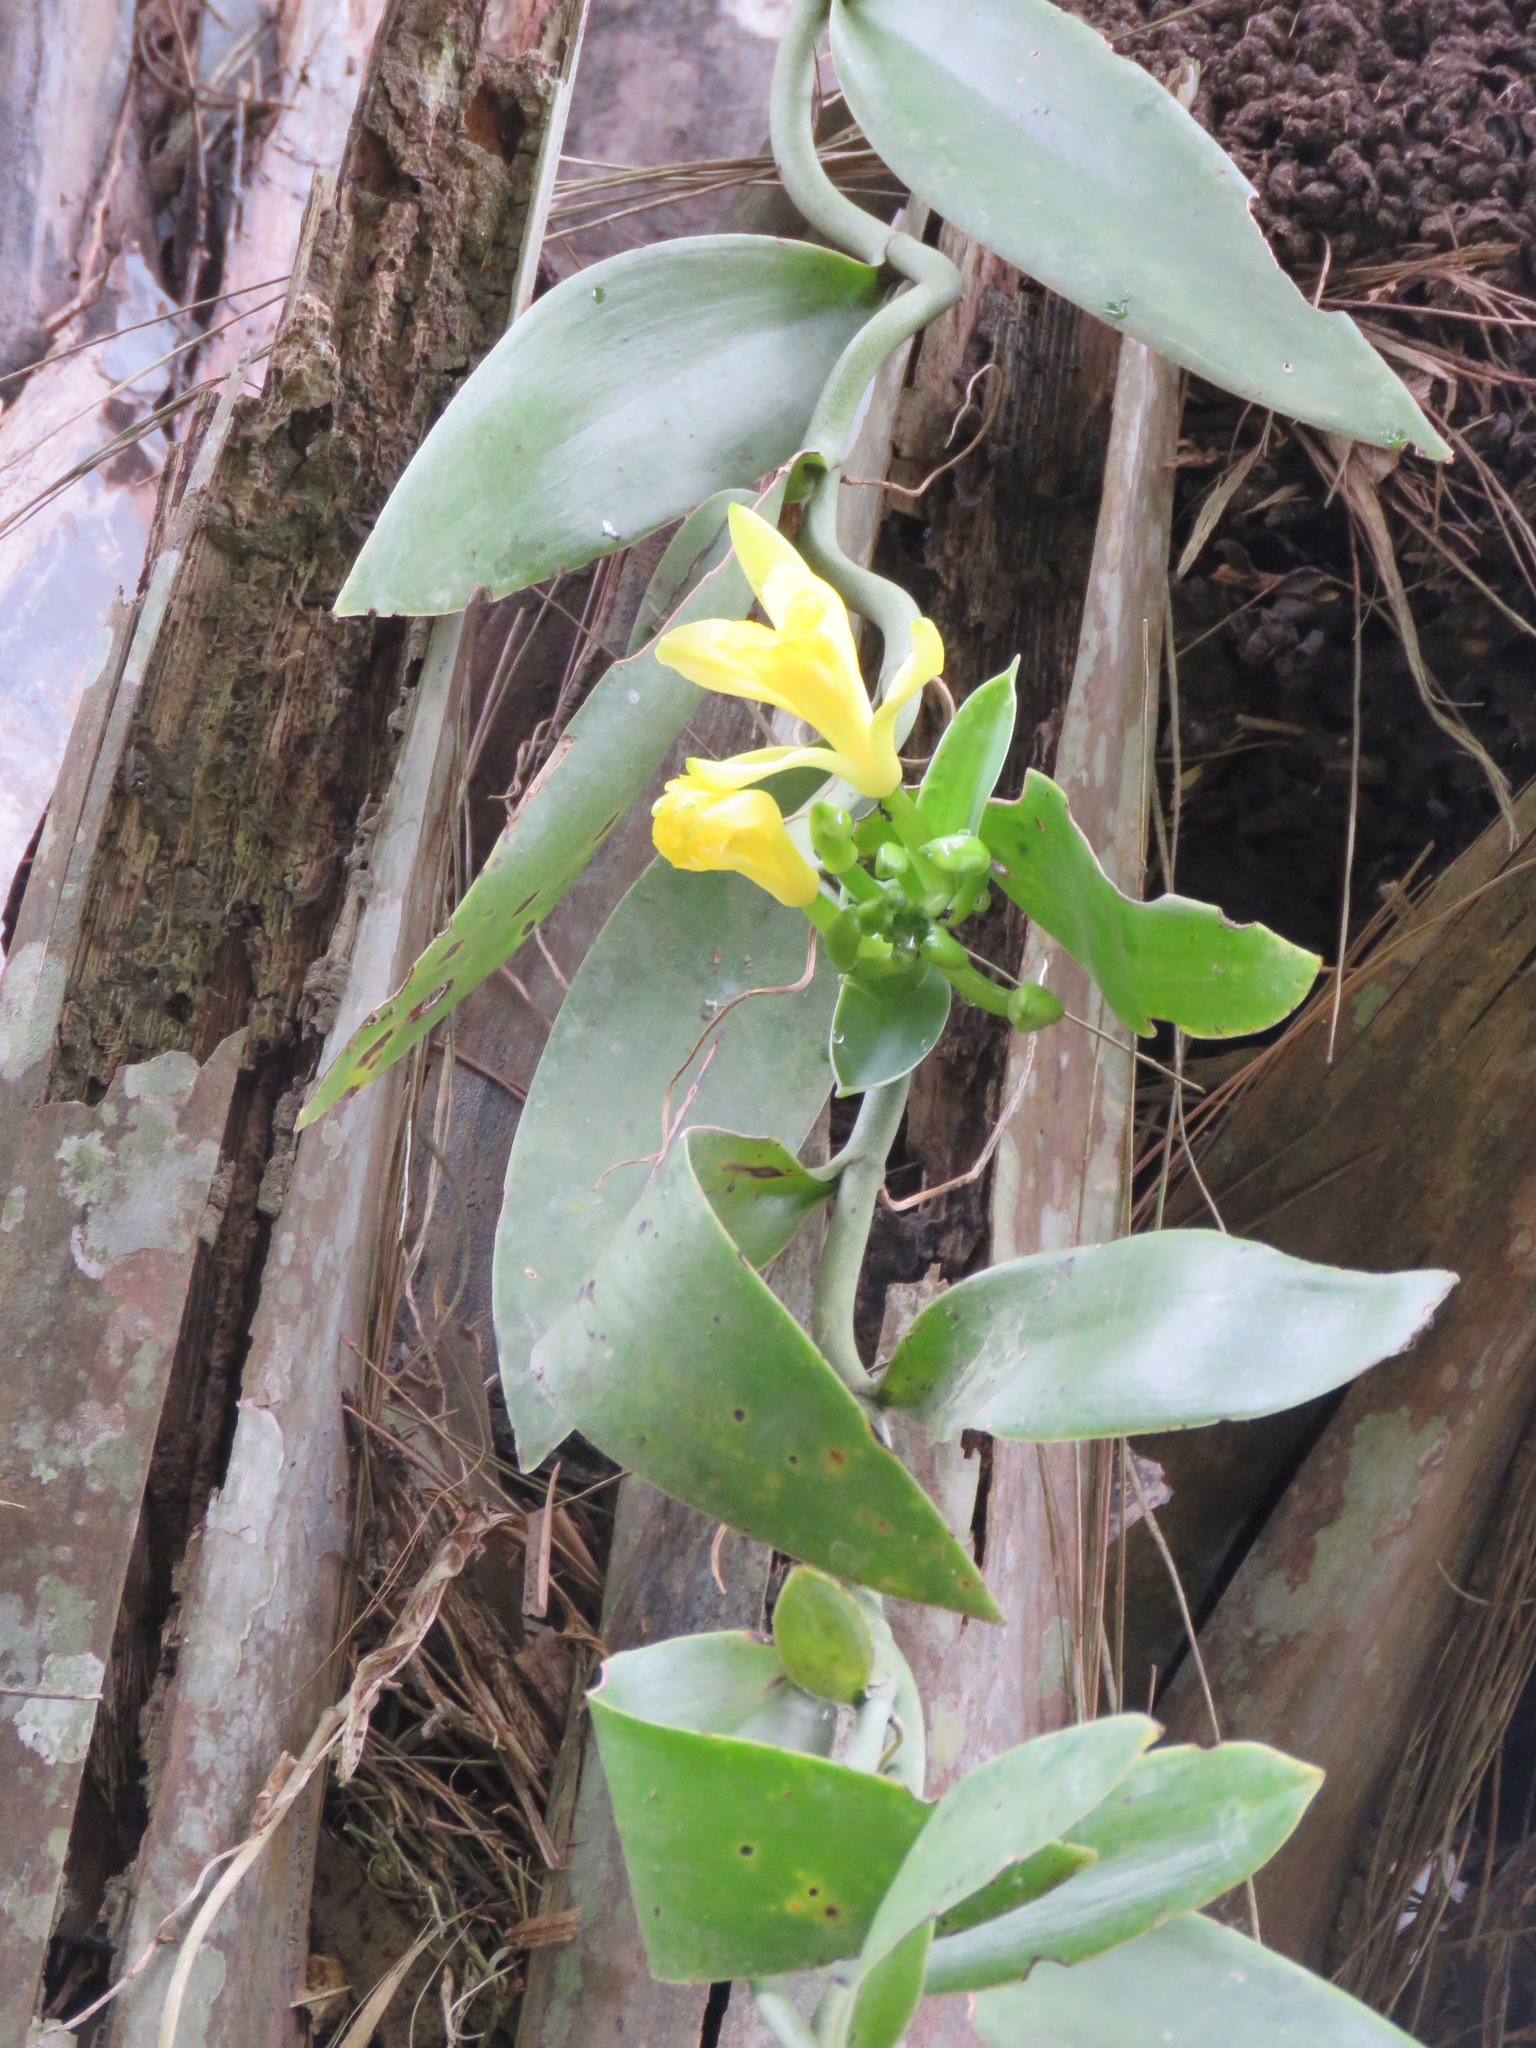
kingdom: Plantae
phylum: Tracheophyta
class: Liliopsida
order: Asparagales
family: Orchidaceae
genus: Vanilla
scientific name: Vanilla palmarum
